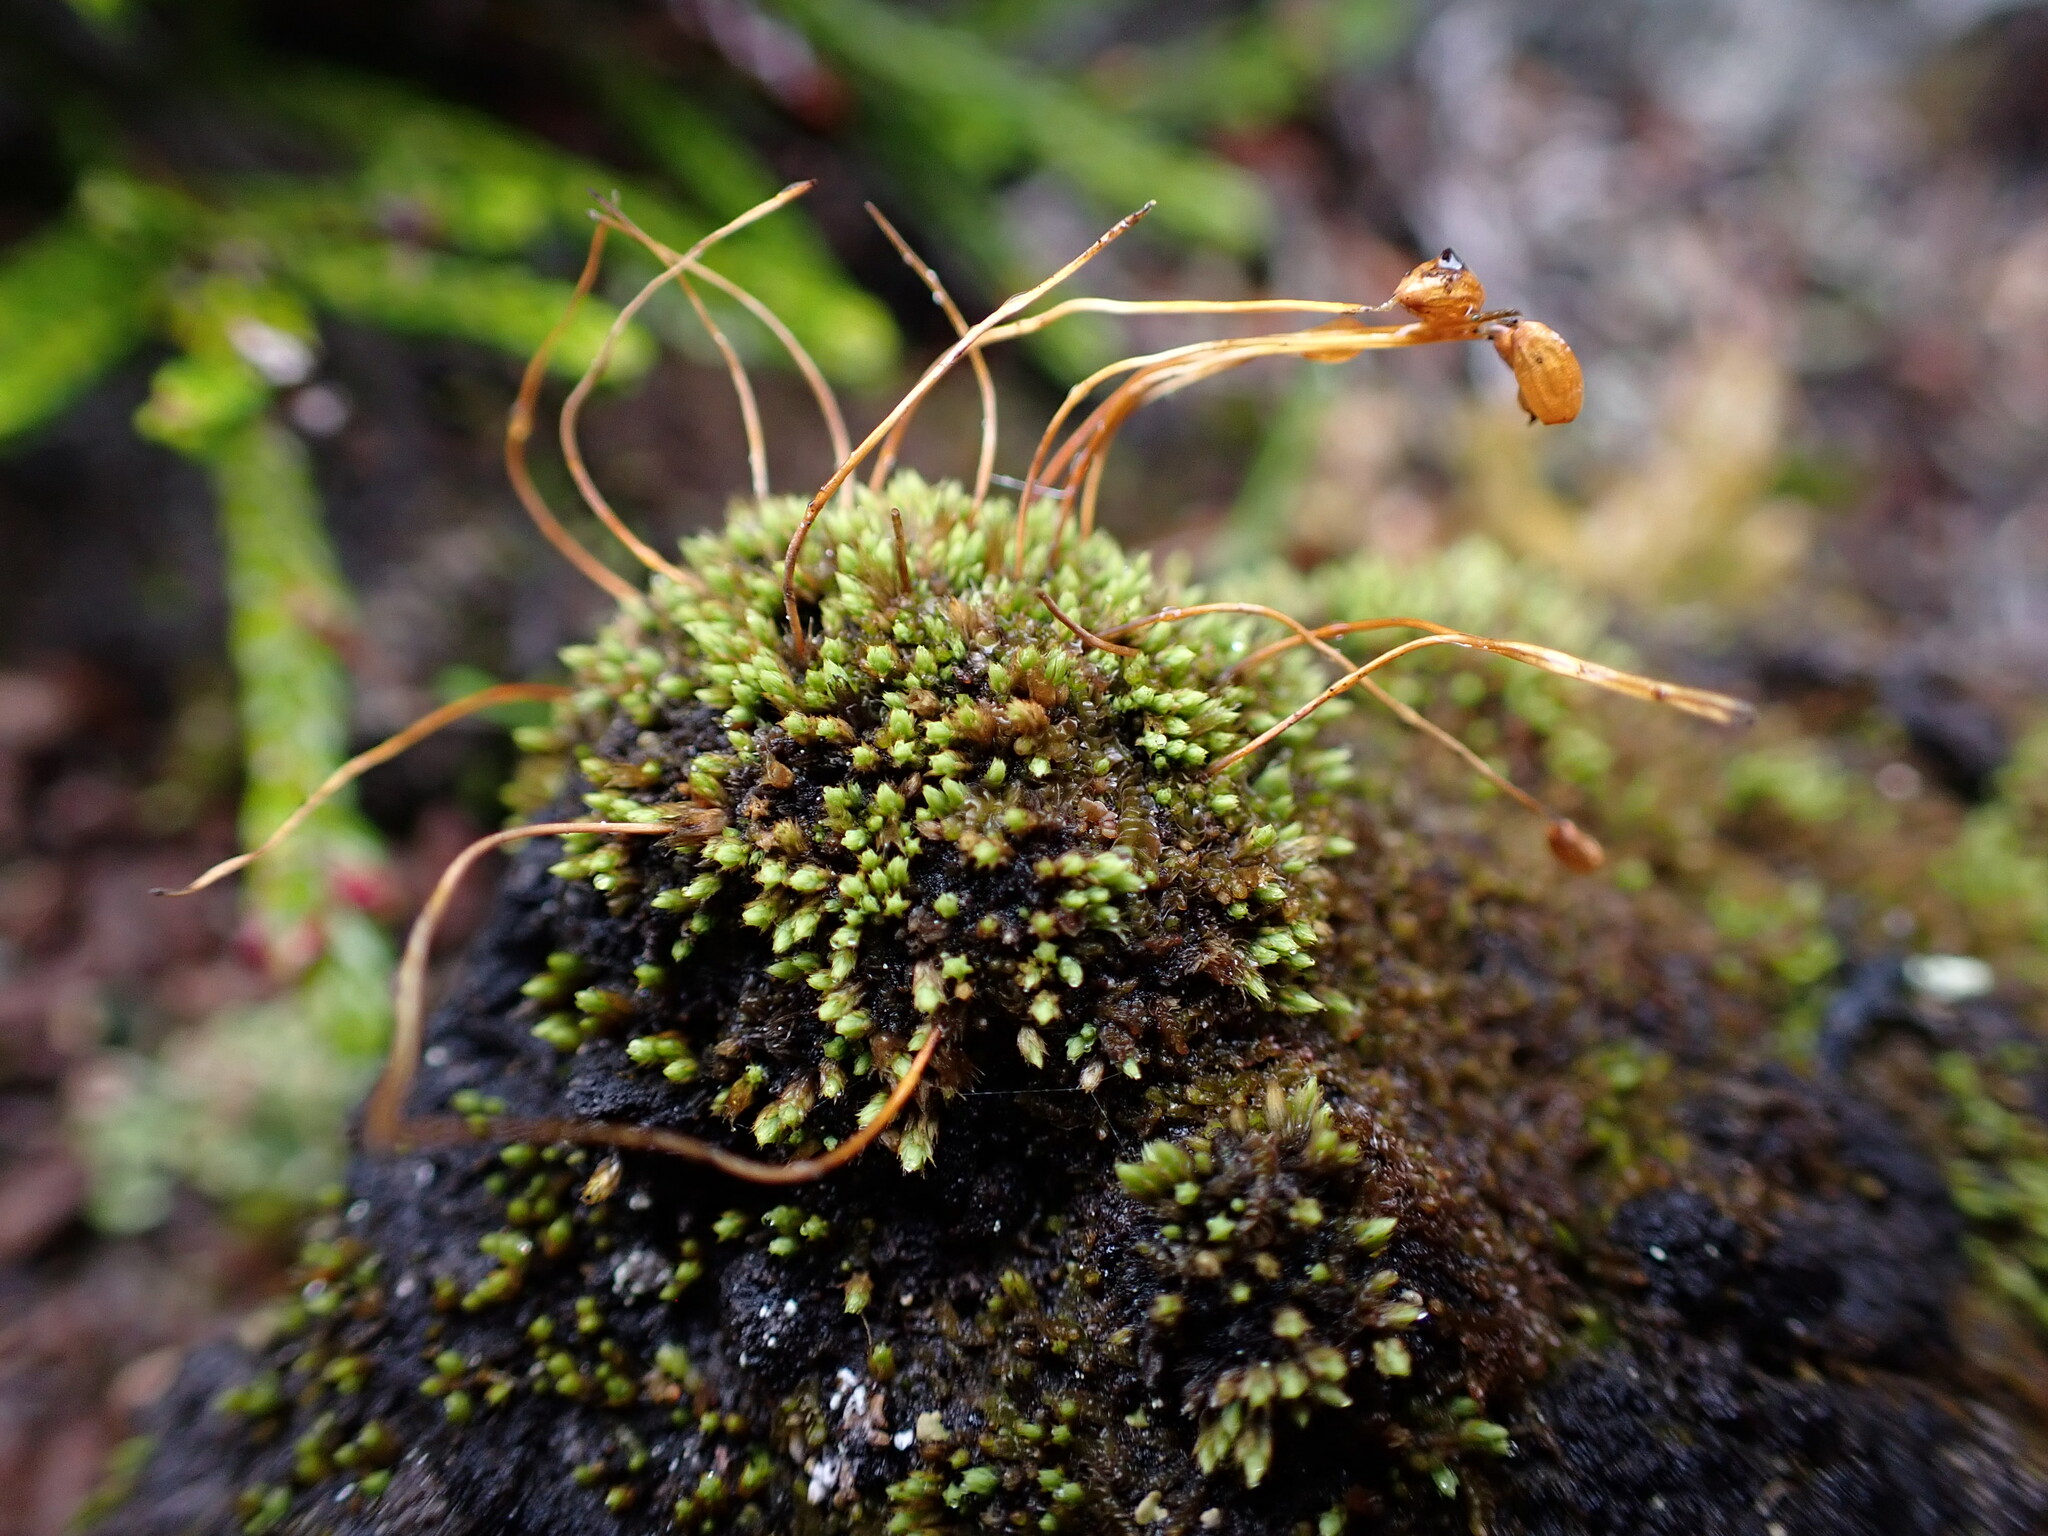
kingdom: Plantae
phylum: Bryophyta
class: Bryopsida
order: Bartramiales
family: Bartramiaceae
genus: Conostomum
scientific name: Conostomum tetragonum
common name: Helmet moss
